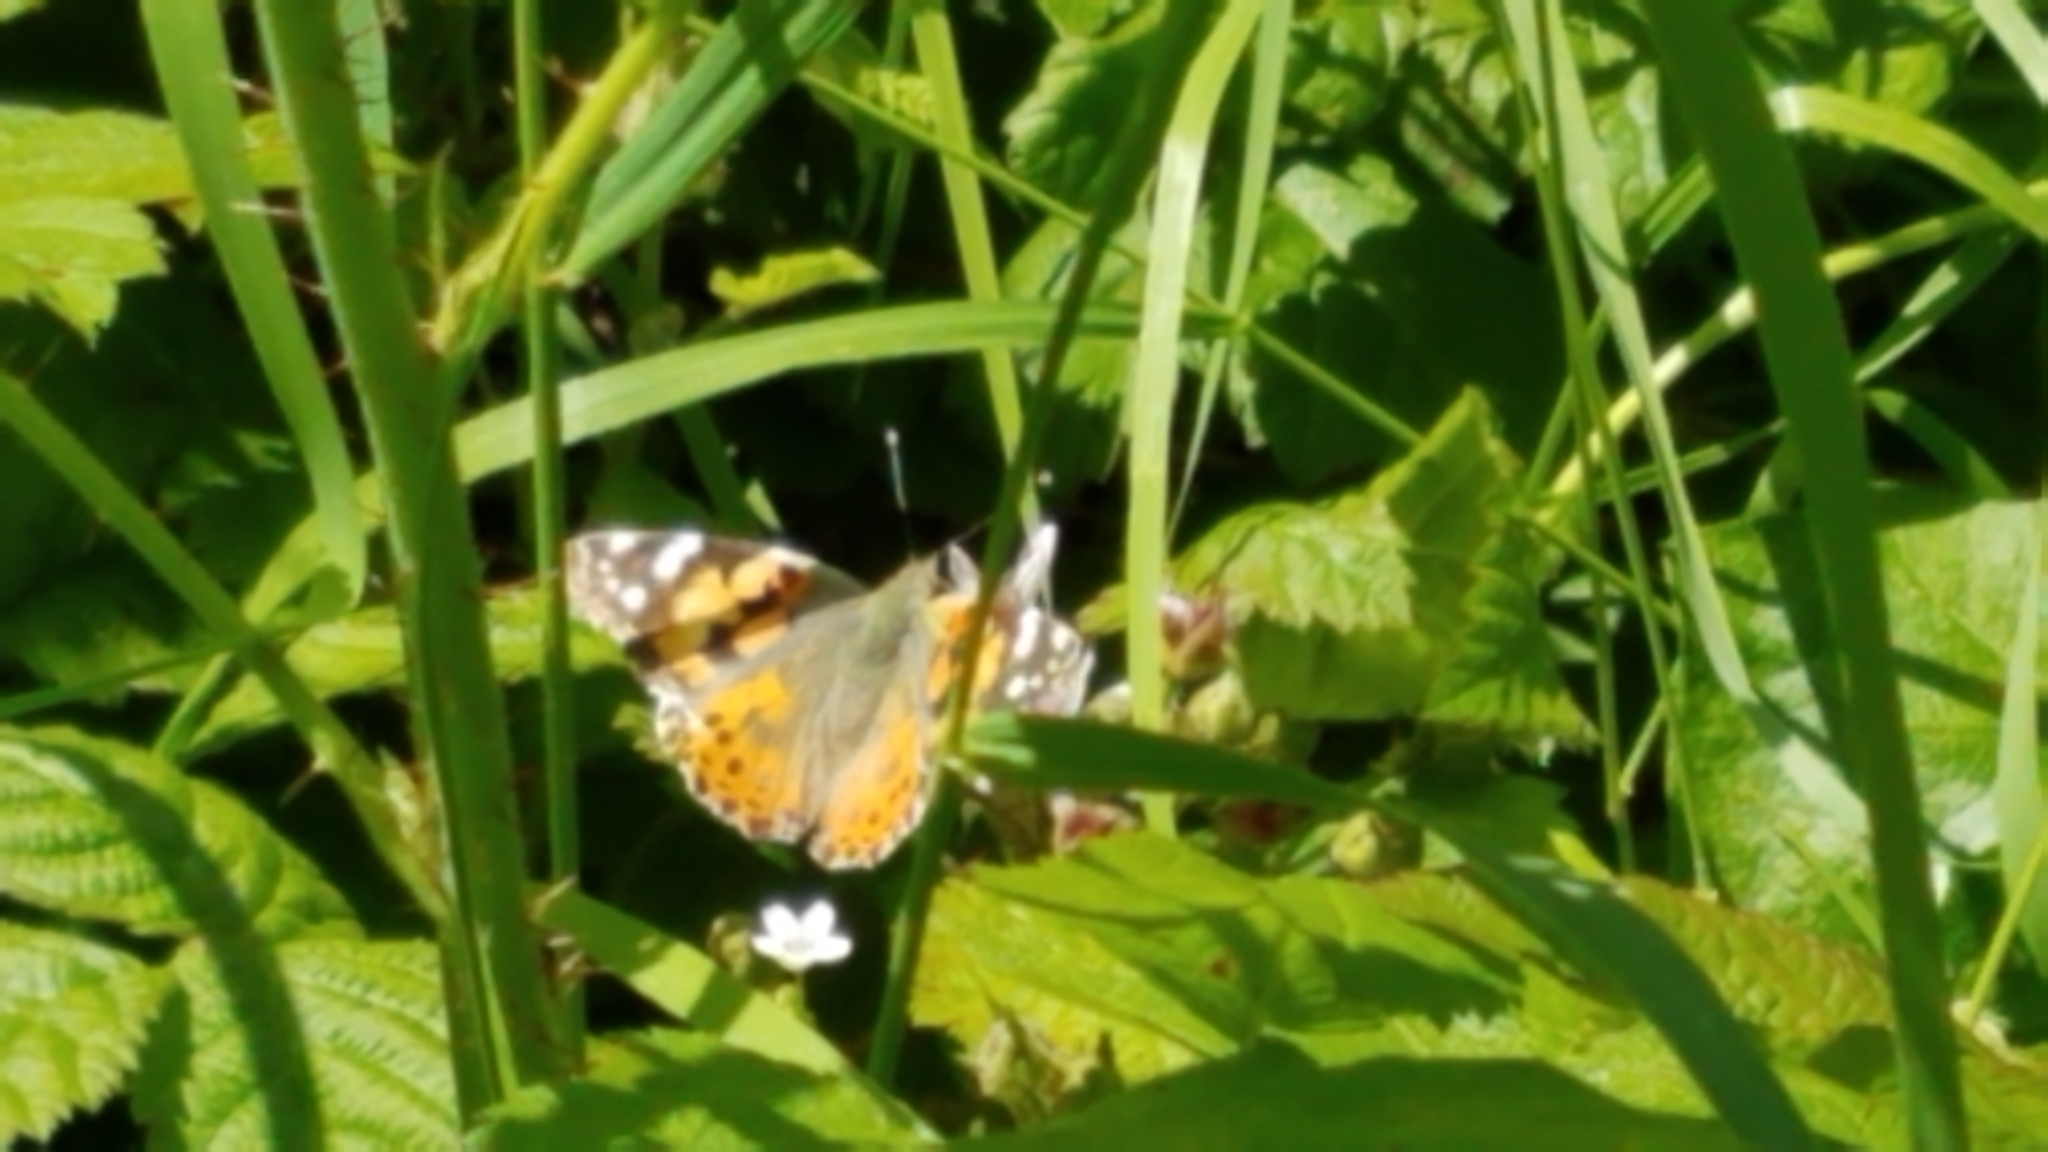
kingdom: Animalia
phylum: Arthropoda
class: Insecta
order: Lepidoptera
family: Nymphalidae
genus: Vanessa
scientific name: Vanessa cardui
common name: Painted lady
